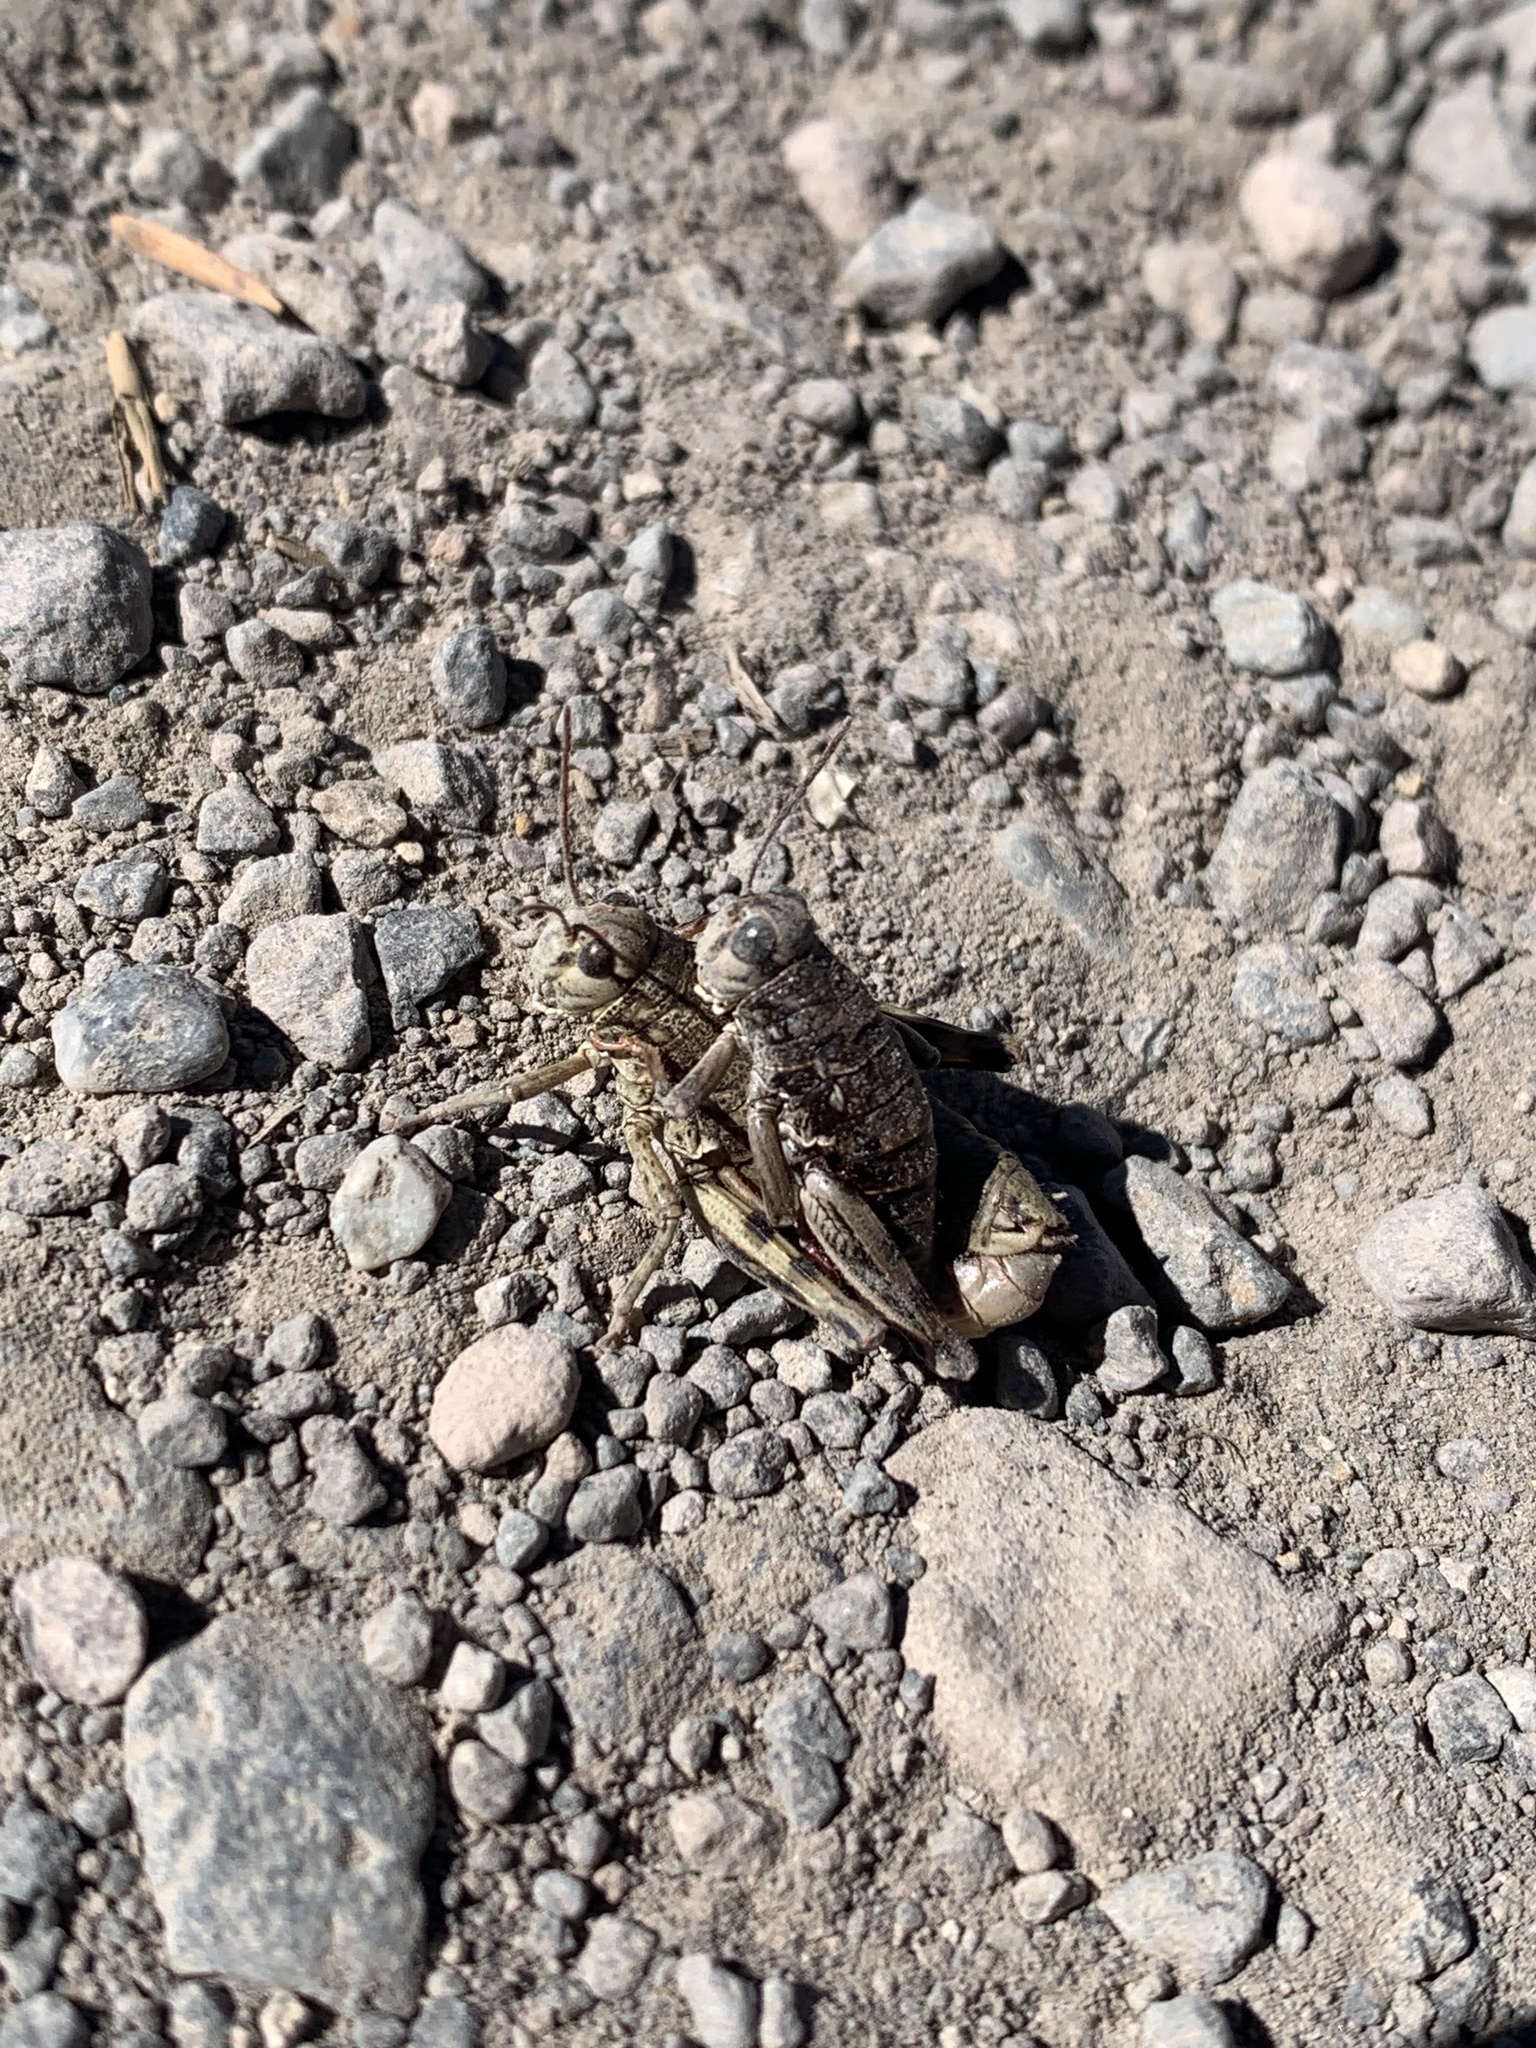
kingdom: Animalia
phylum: Arthropoda
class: Insecta
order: Orthoptera
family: Acrididae
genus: Bradynotes
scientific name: Bradynotes obesa
